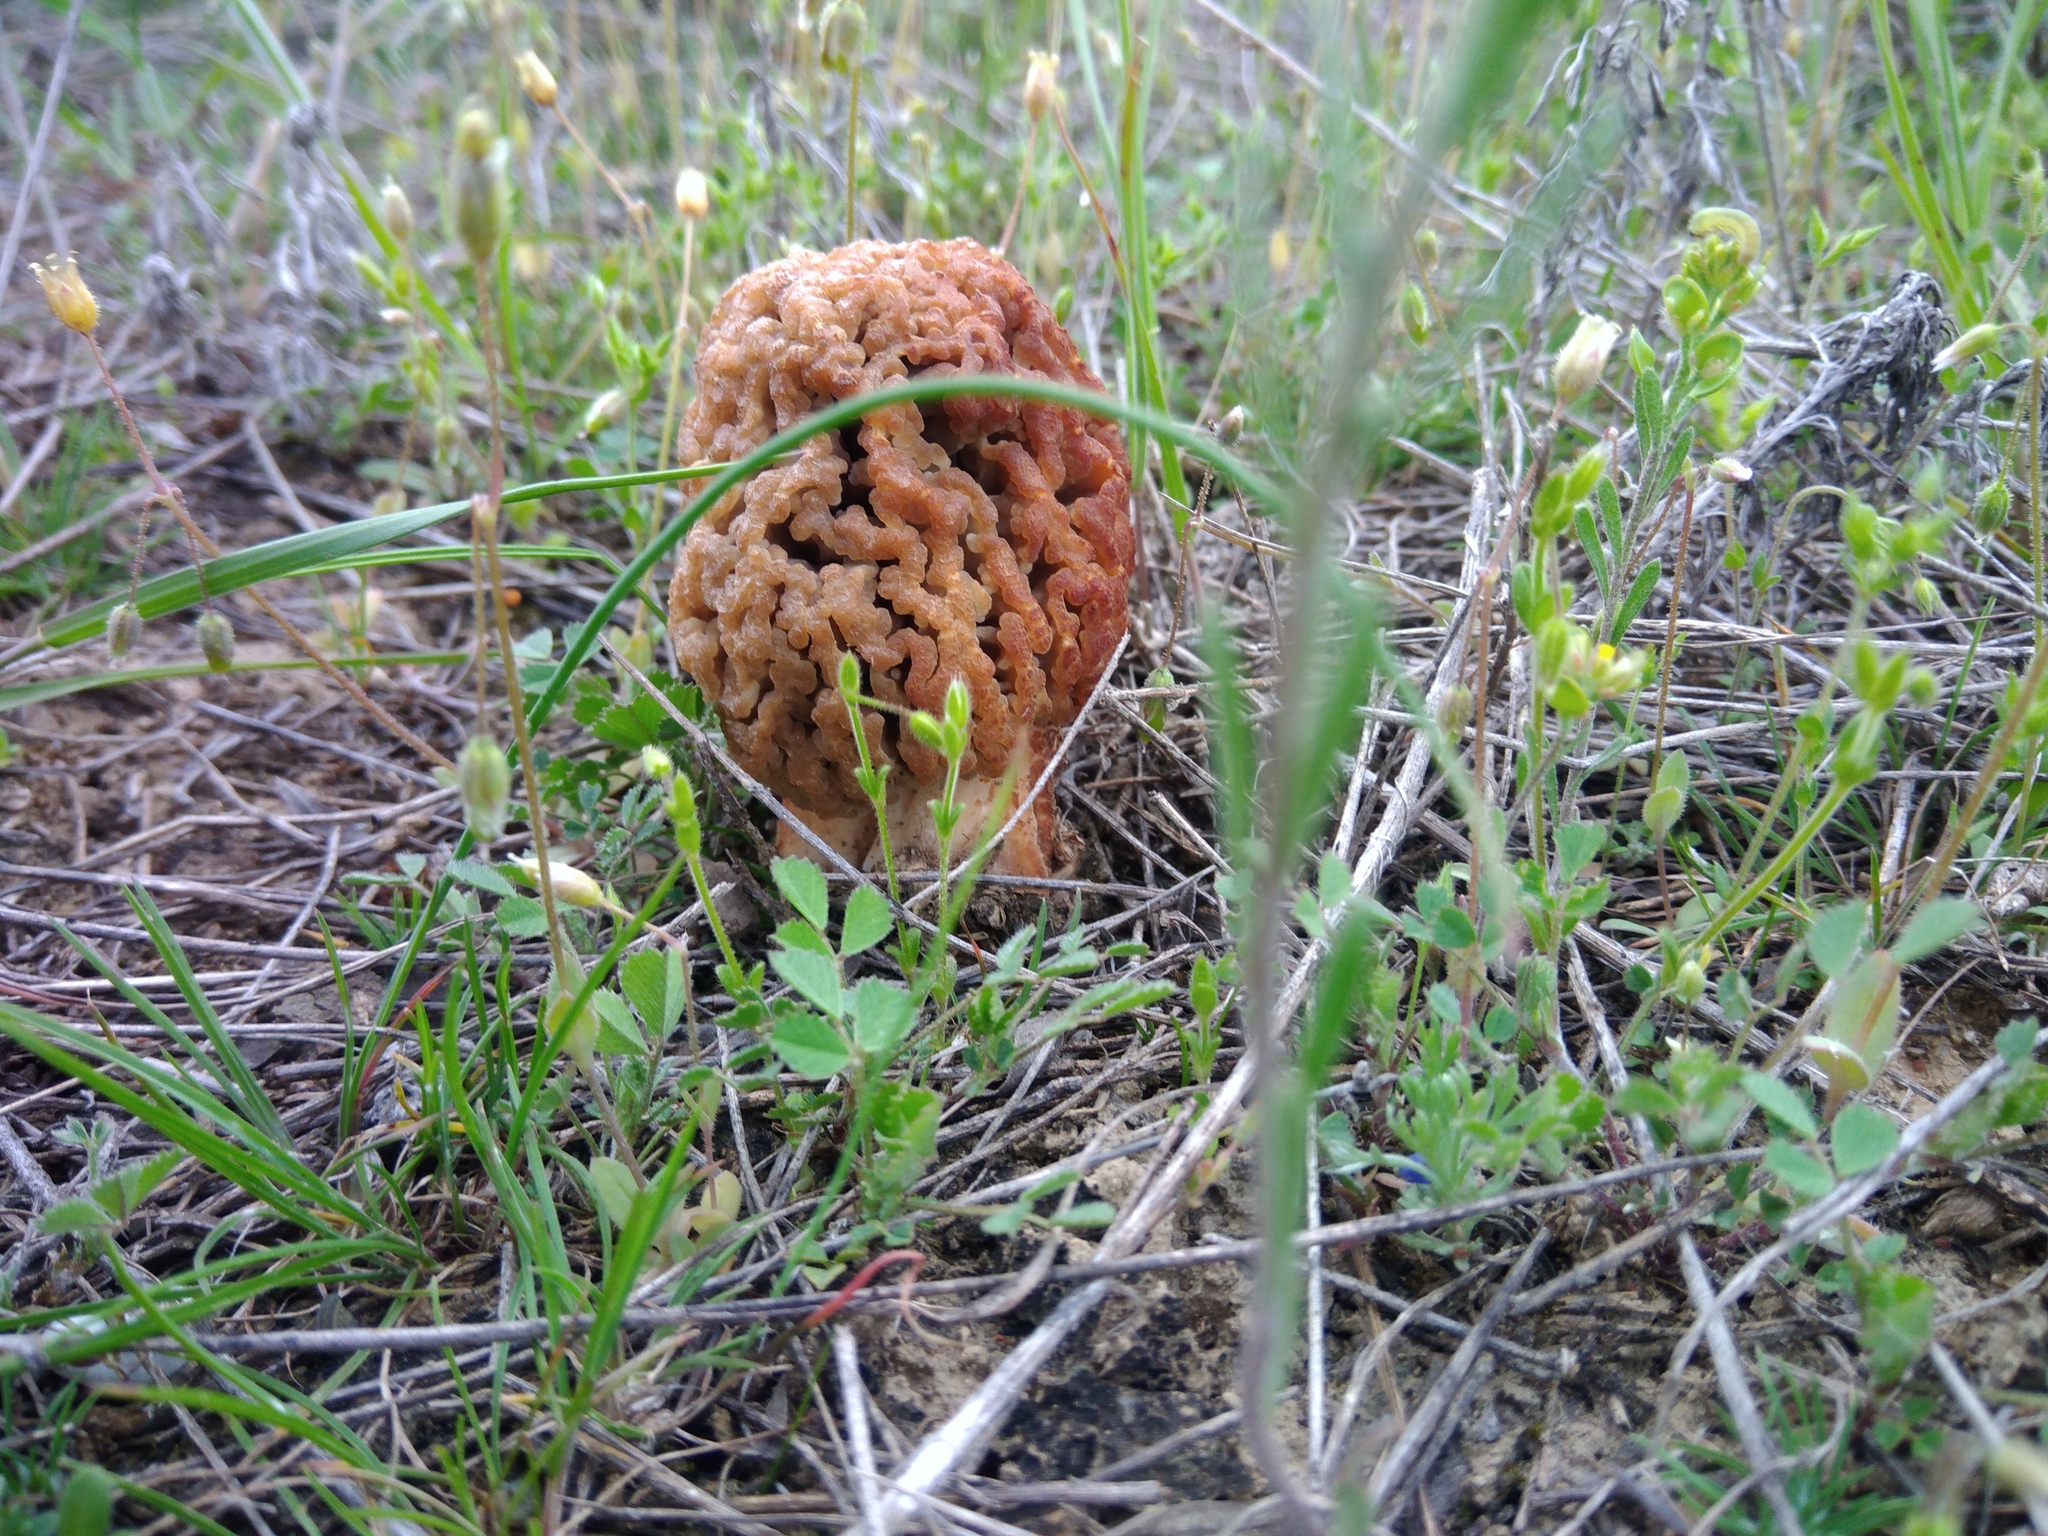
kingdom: Fungi
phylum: Ascomycota
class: Pezizomycetes
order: Pezizales
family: Morchellaceae
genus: Morchella
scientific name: Morchella steppicola
